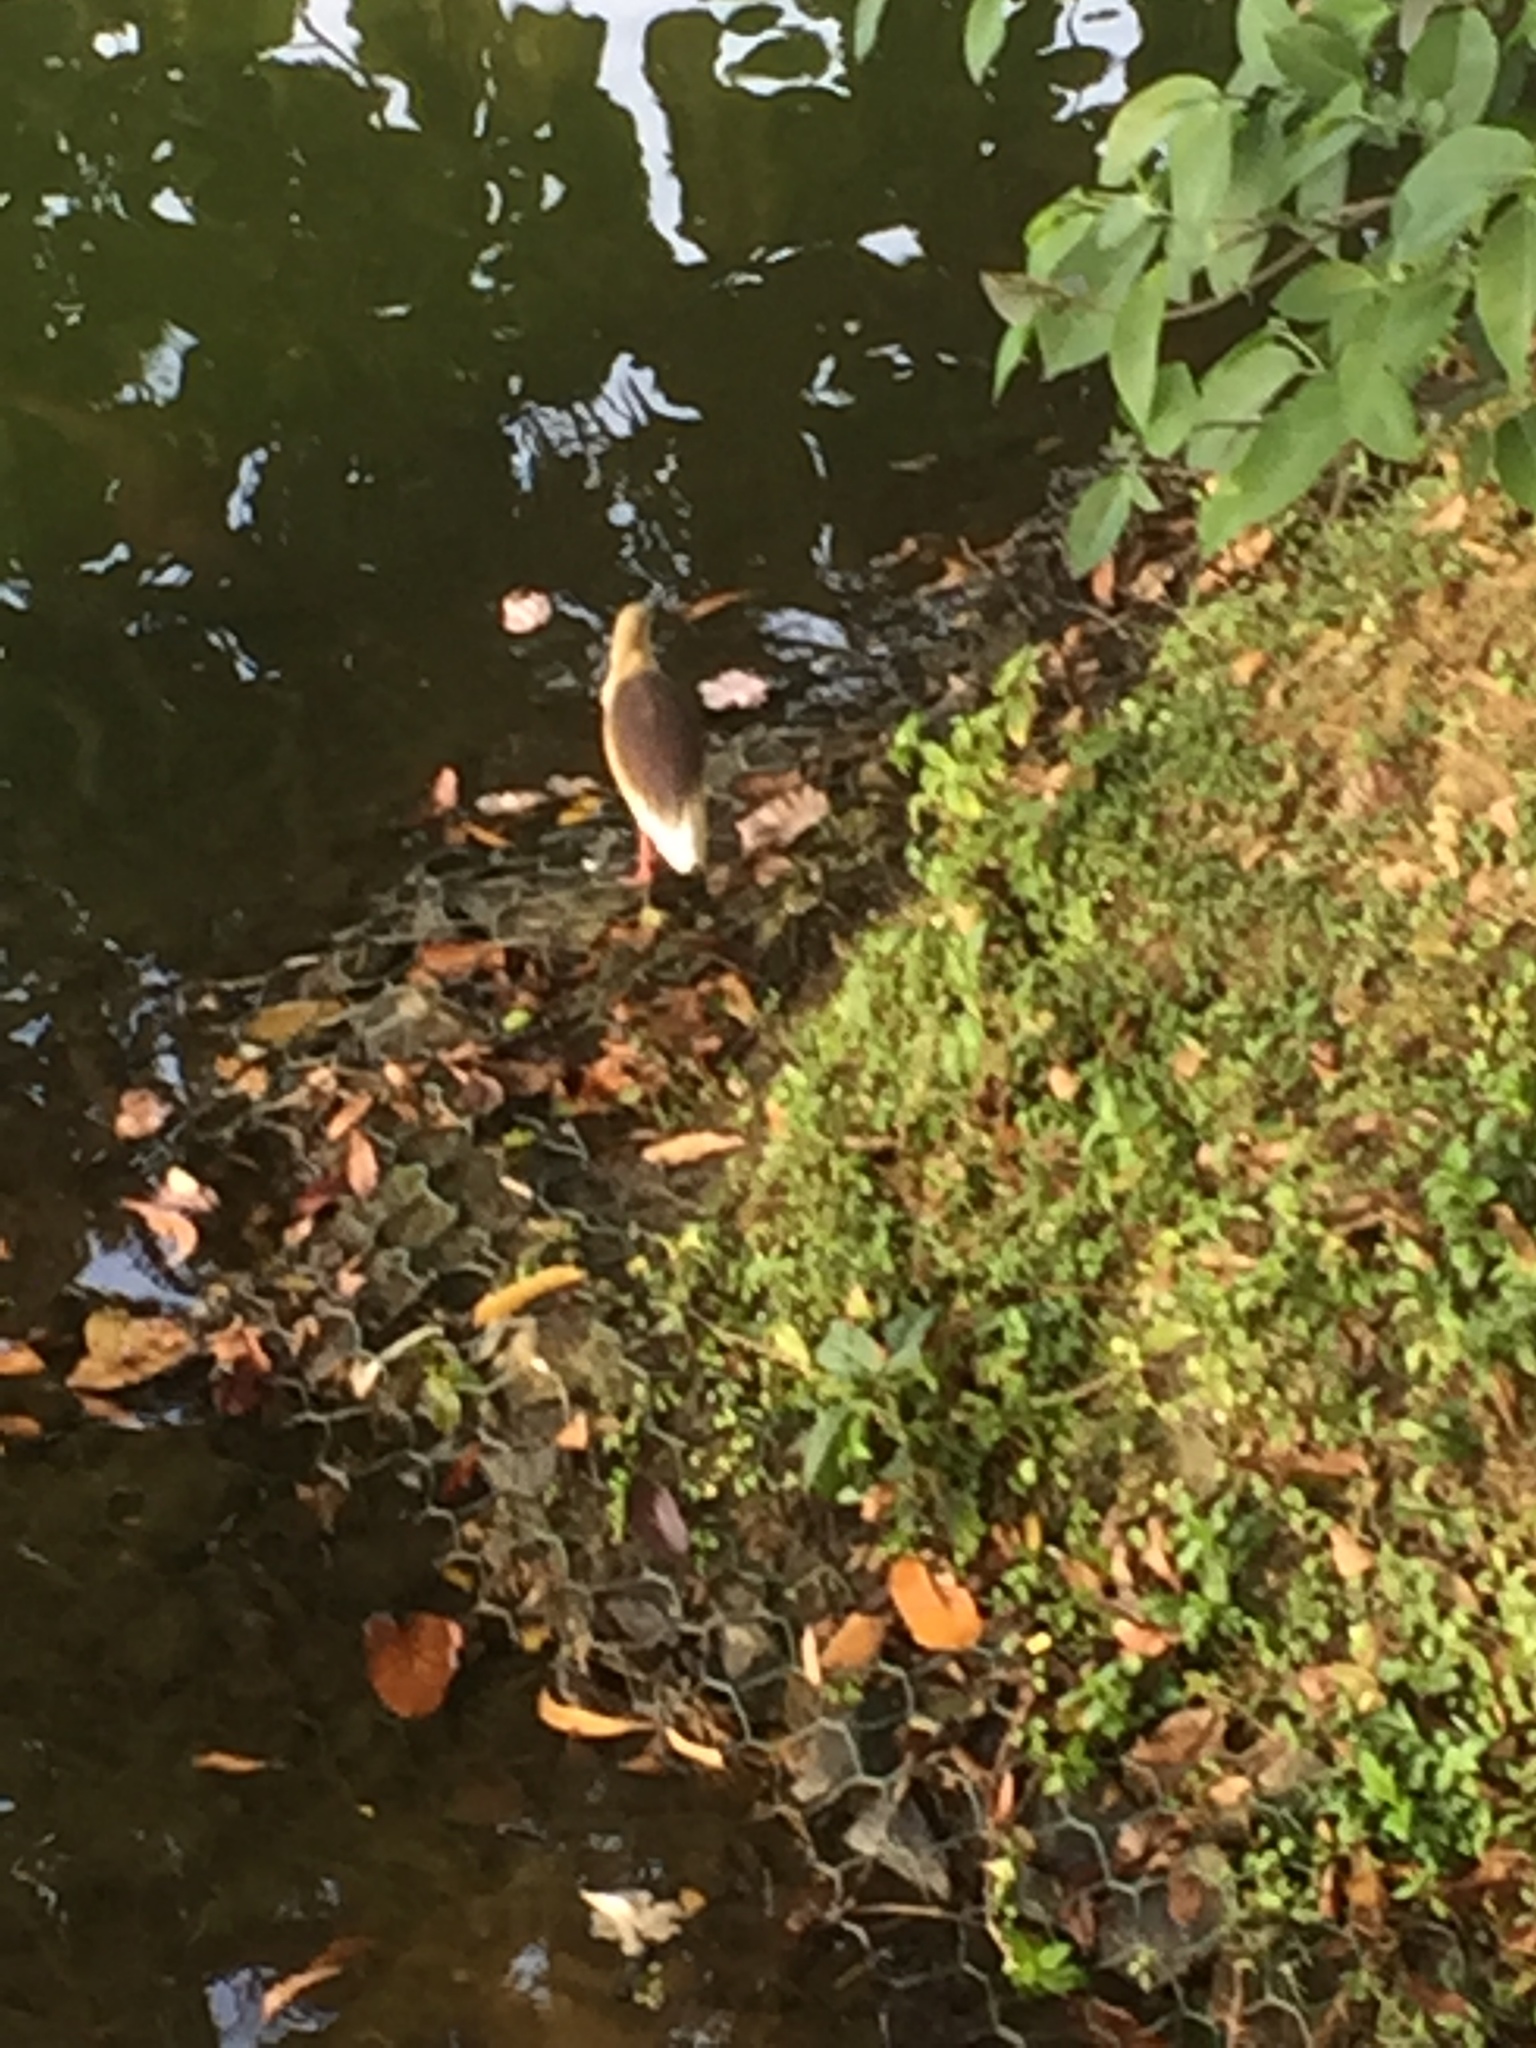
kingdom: Animalia
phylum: Chordata
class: Aves
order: Pelecaniformes
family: Ardeidae
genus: Ardeola
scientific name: Ardeola grayii
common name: Indian pond heron
